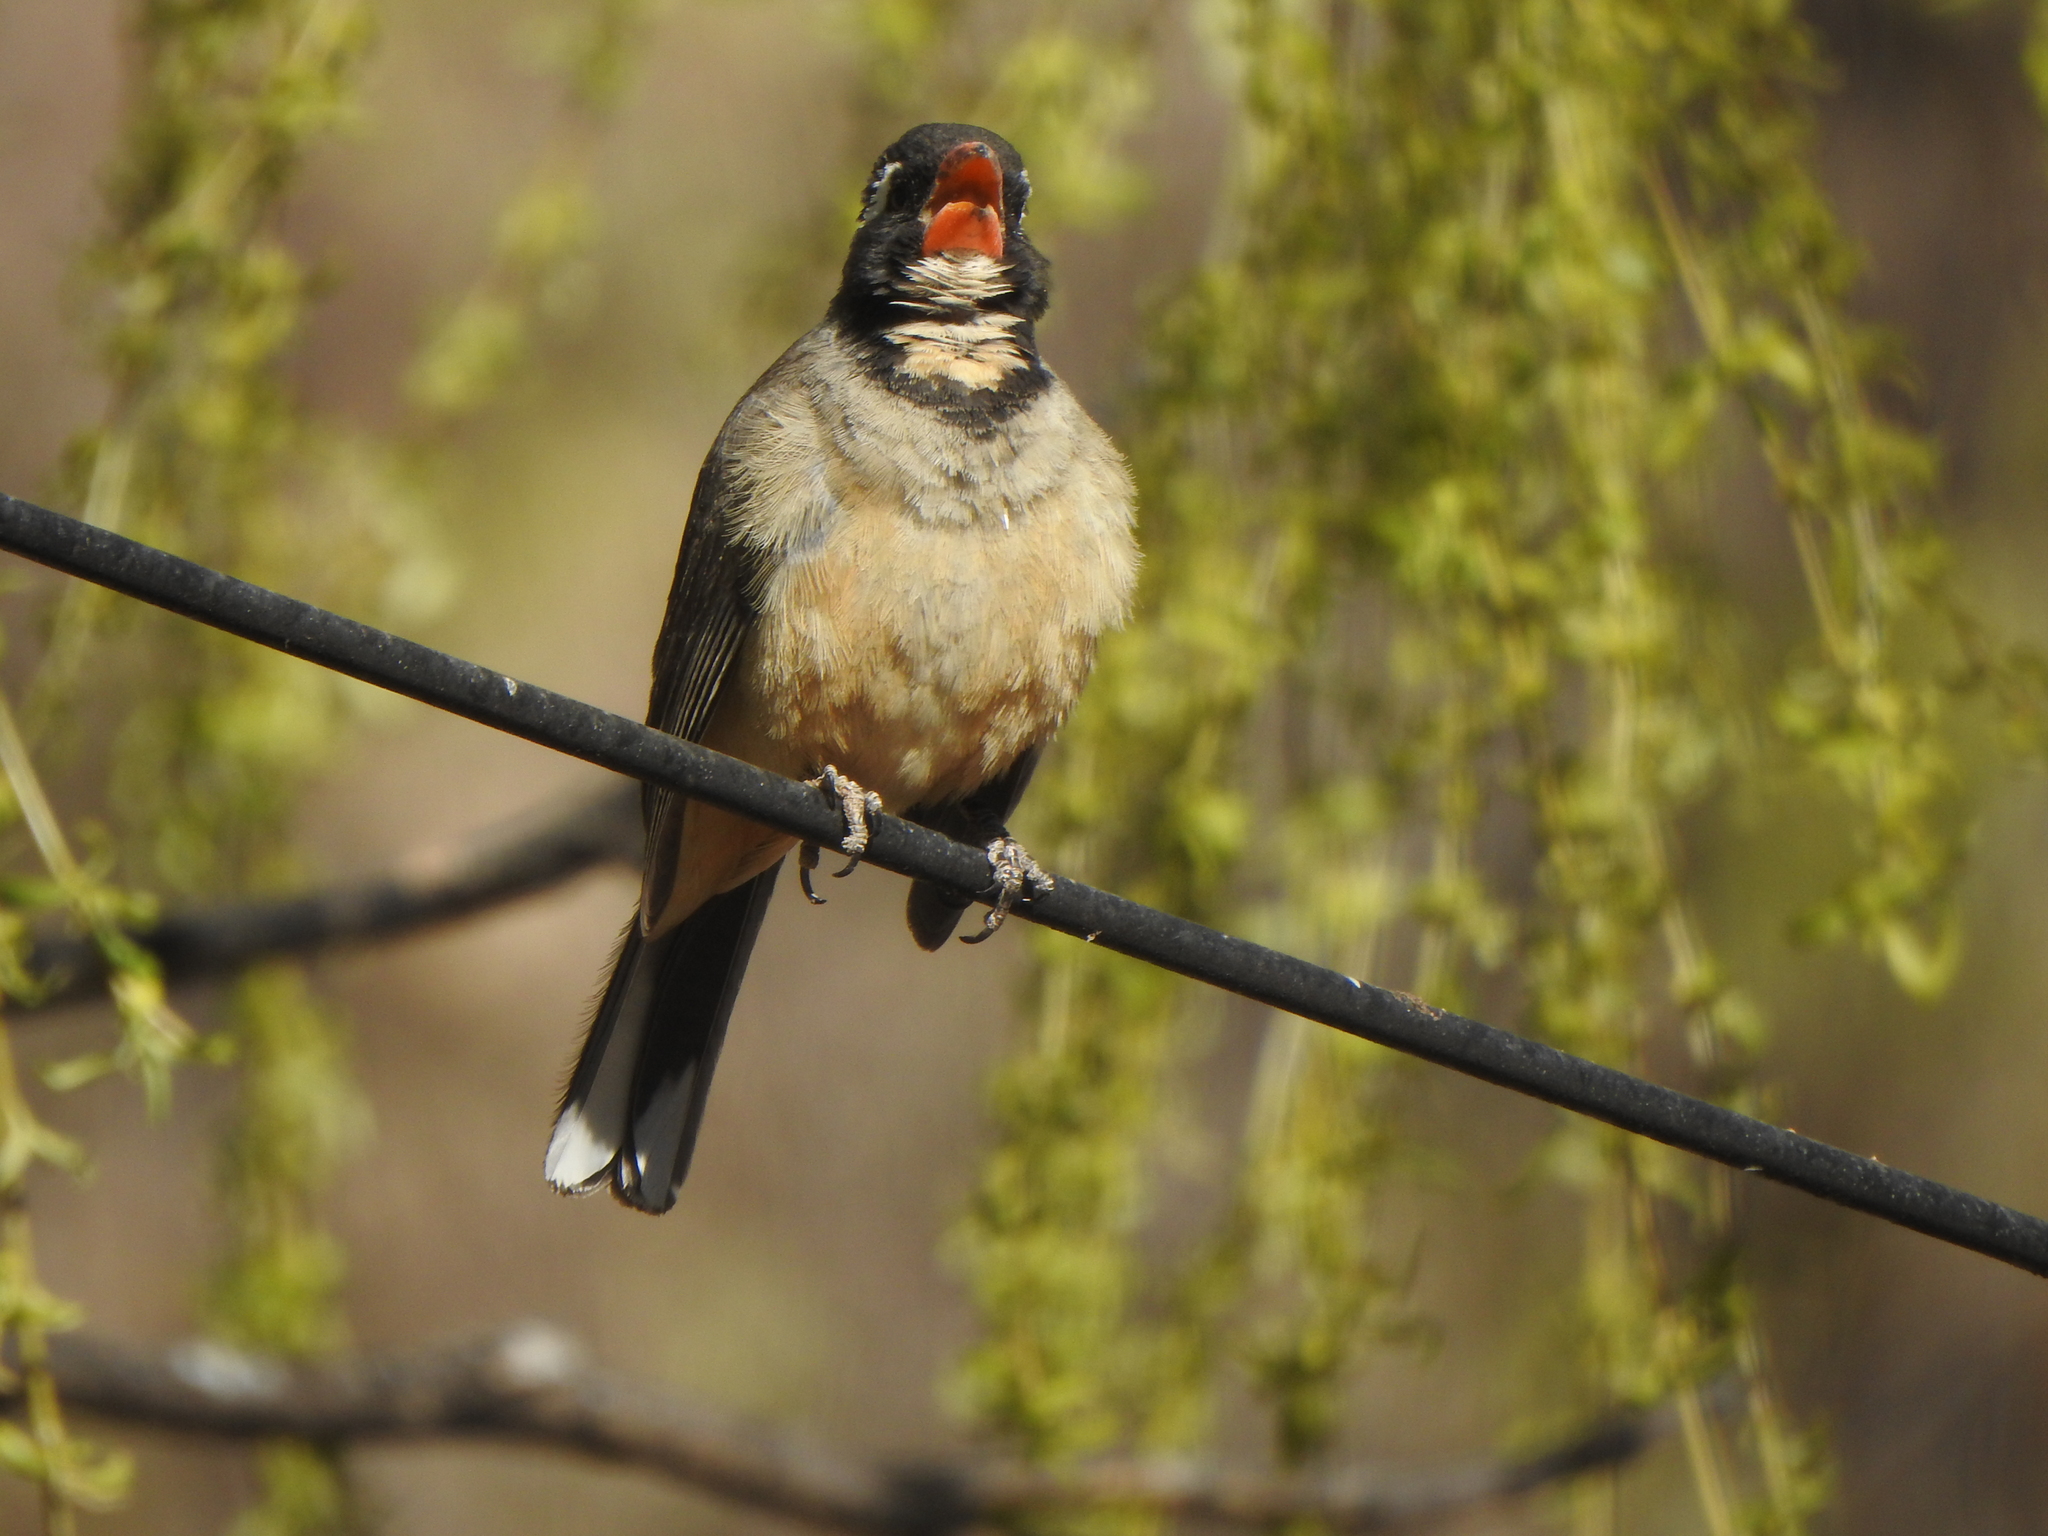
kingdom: Animalia
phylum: Chordata
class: Aves
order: Passeriformes
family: Thraupidae
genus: Saltator
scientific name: Saltator aurantiirostris
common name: Golden-billed saltator
